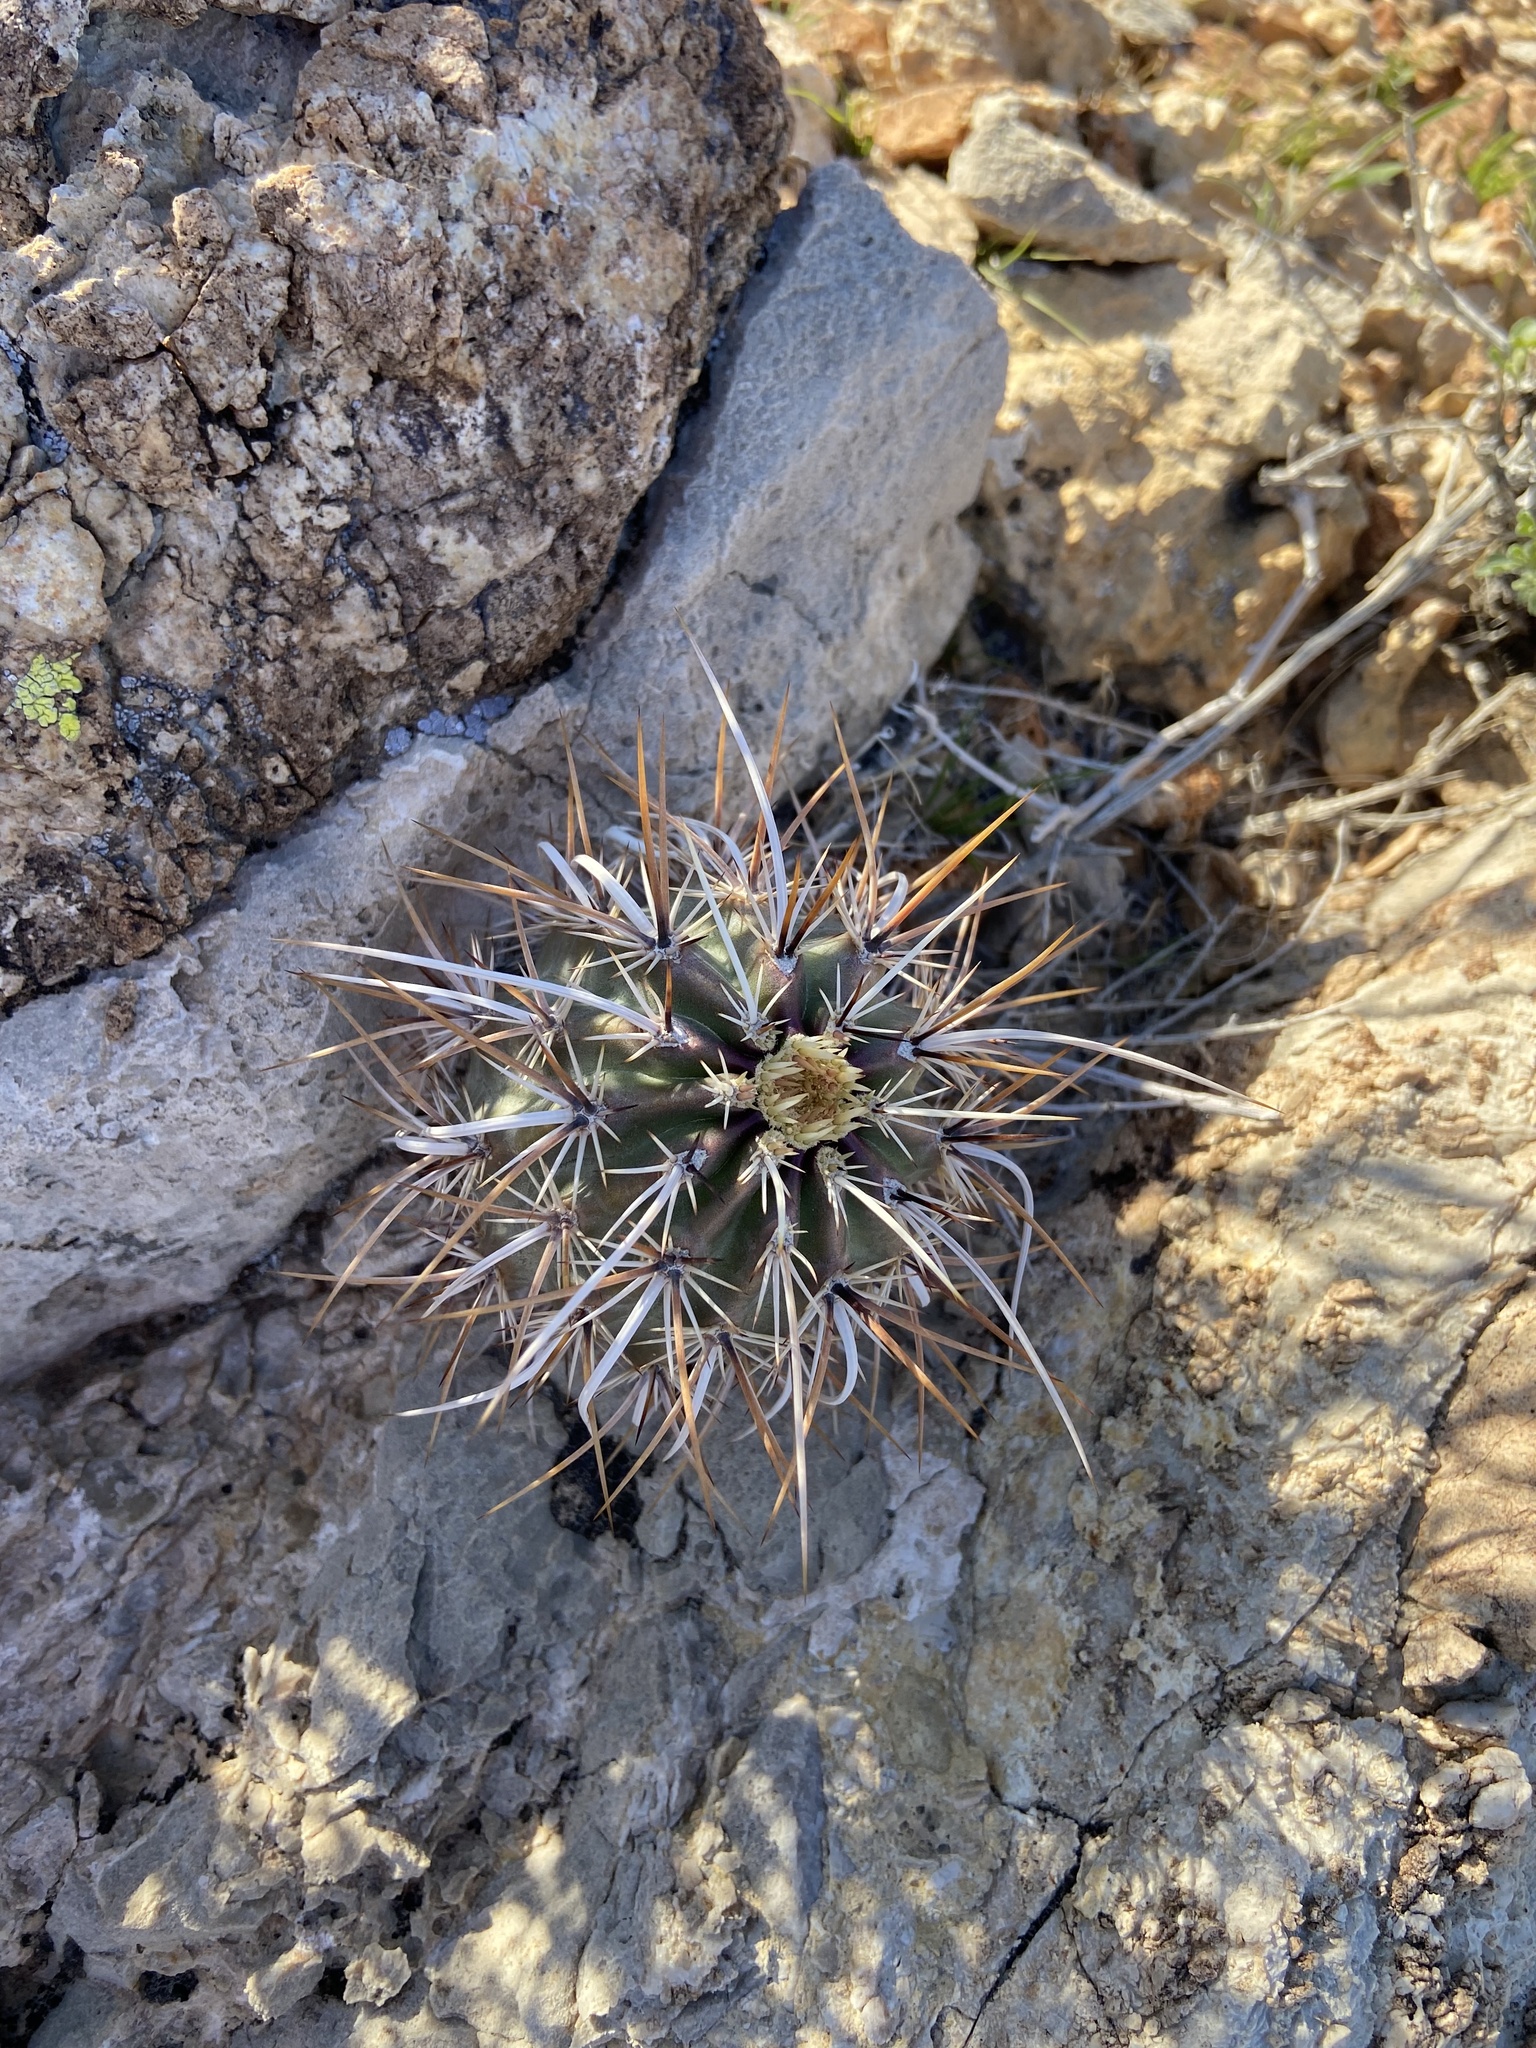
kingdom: Plantae
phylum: Tracheophyta
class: Magnoliopsida
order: Caryophyllales
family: Cactaceae
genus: Echinocereus
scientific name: Echinocereus engelmannii
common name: Engelmann's hedgehog cactus
